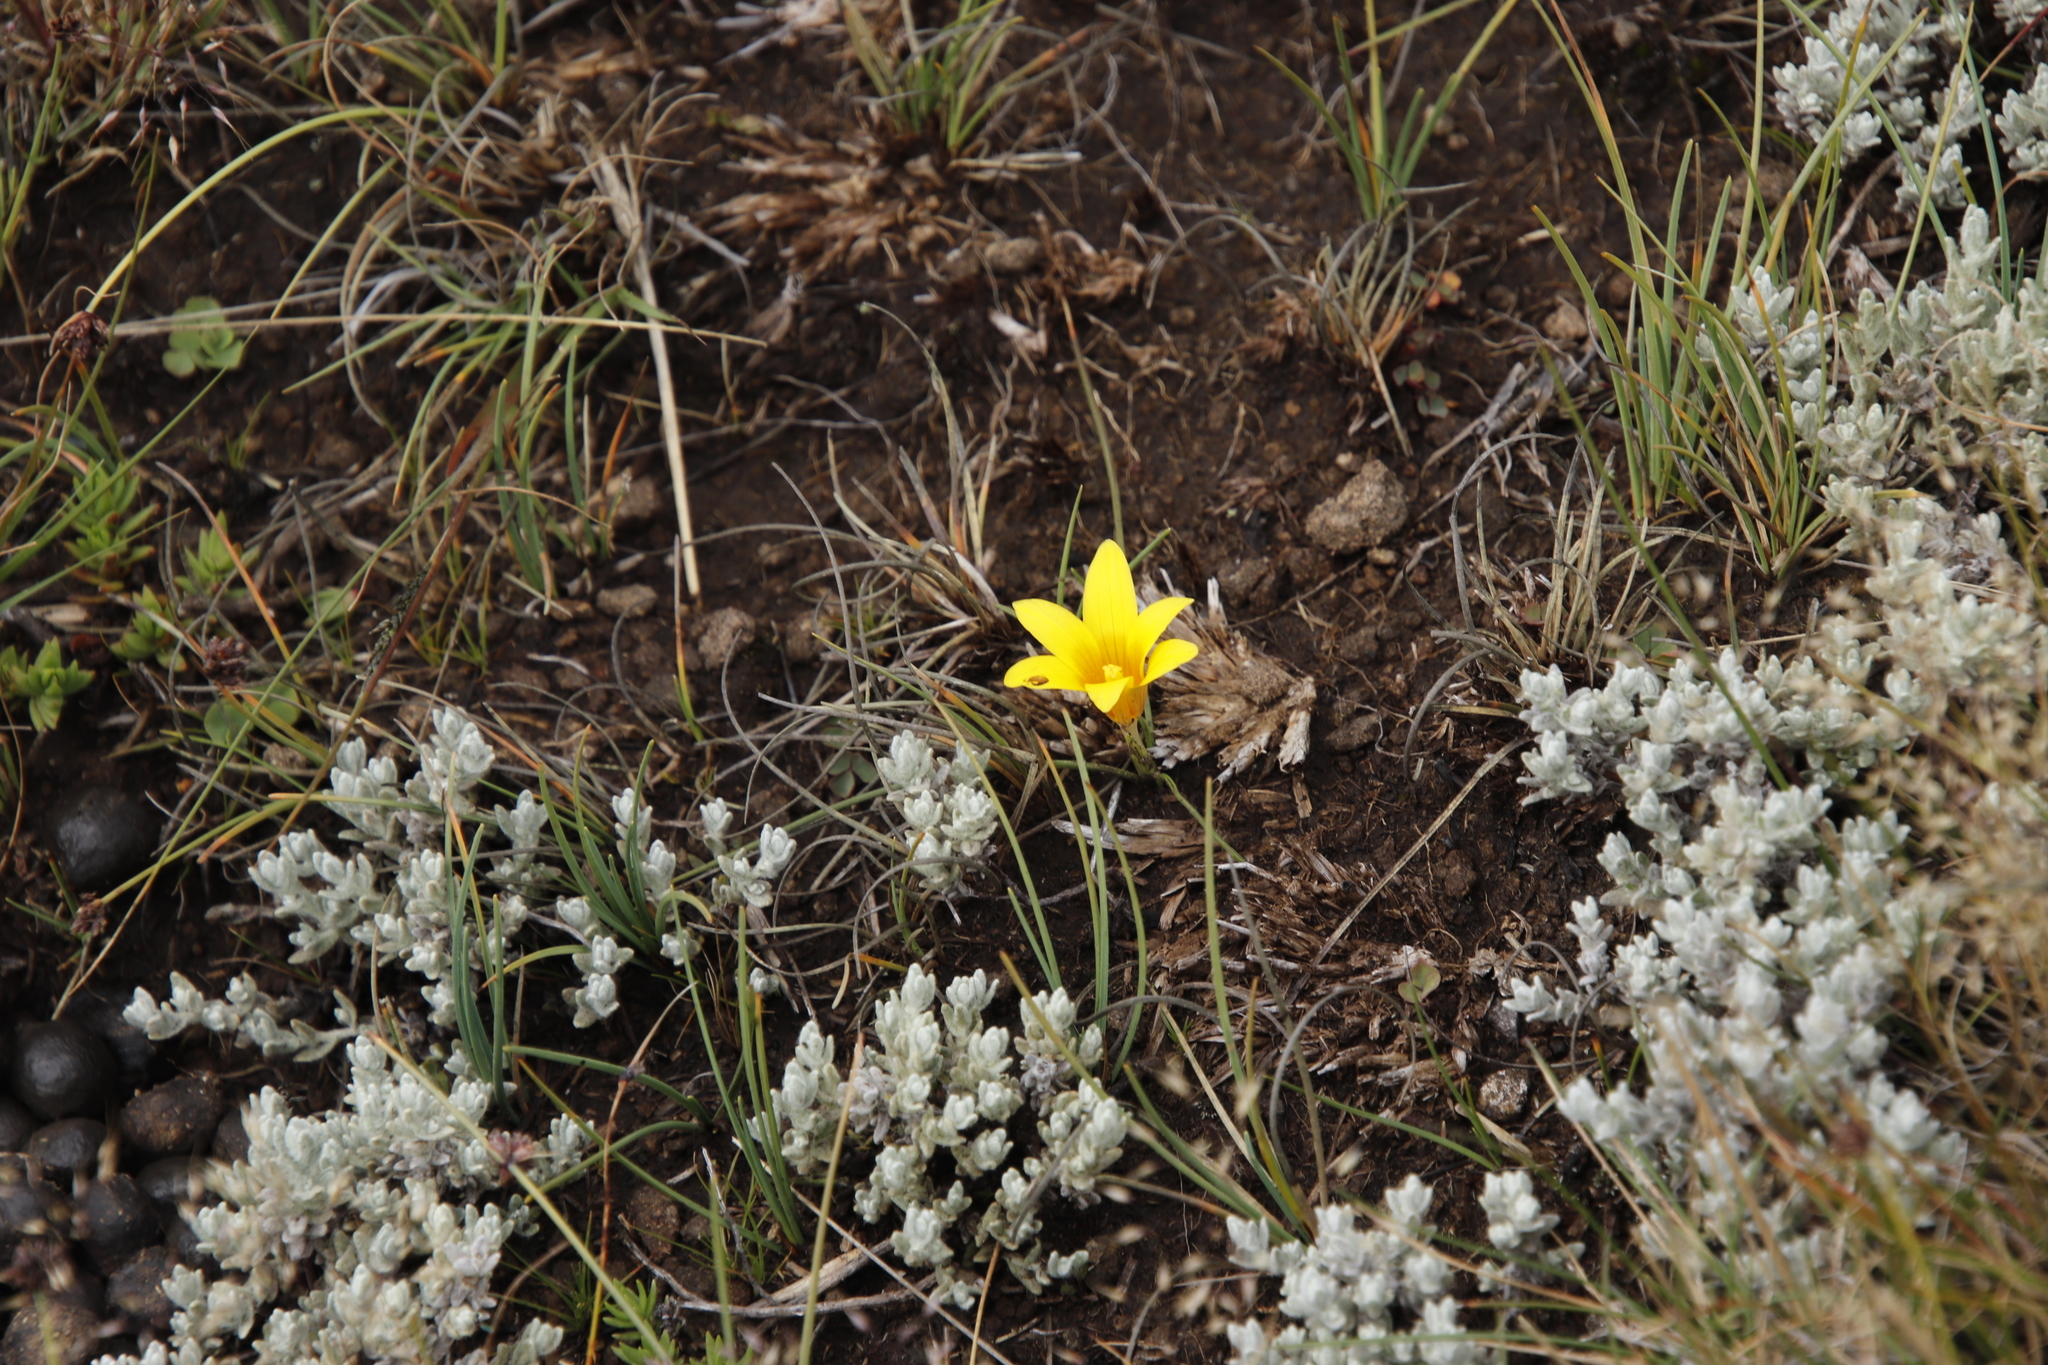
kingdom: Plantae
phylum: Tracheophyta
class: Liliopsida
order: Asparagales
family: Iridaceae
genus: Romulea
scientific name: Romulea macowanii
